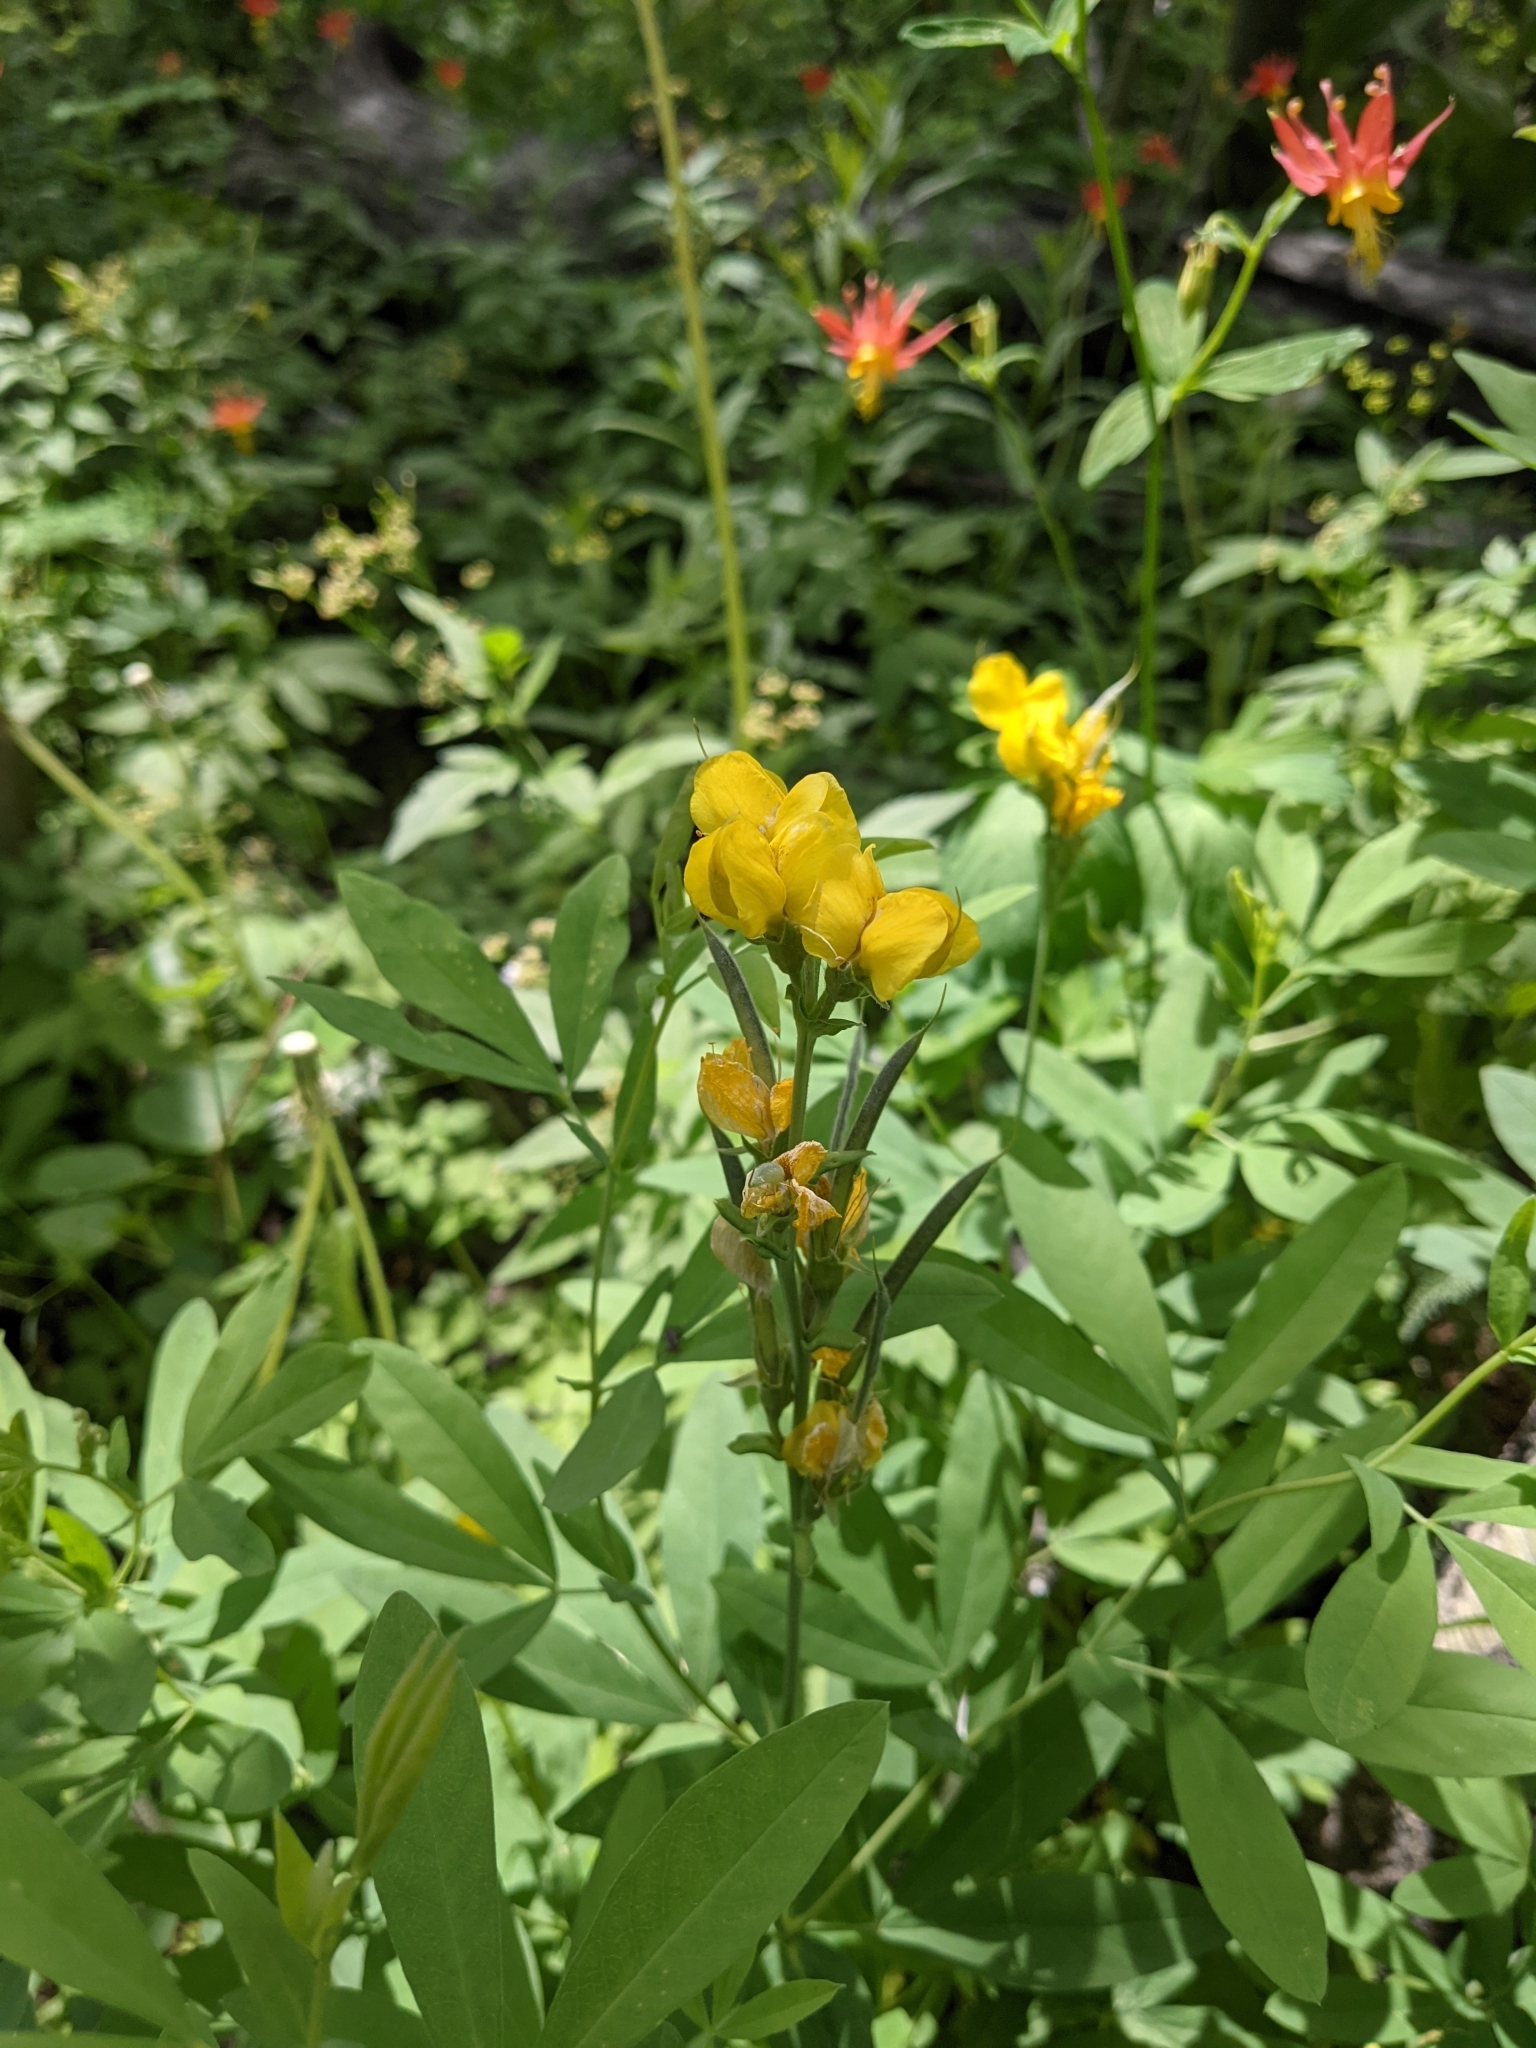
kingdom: Plantae
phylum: Tracheophyta
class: Magnoliopsida
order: Fabales
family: Fabaceae
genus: Thermopsis
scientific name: Thermopsis montana
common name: False lupin
